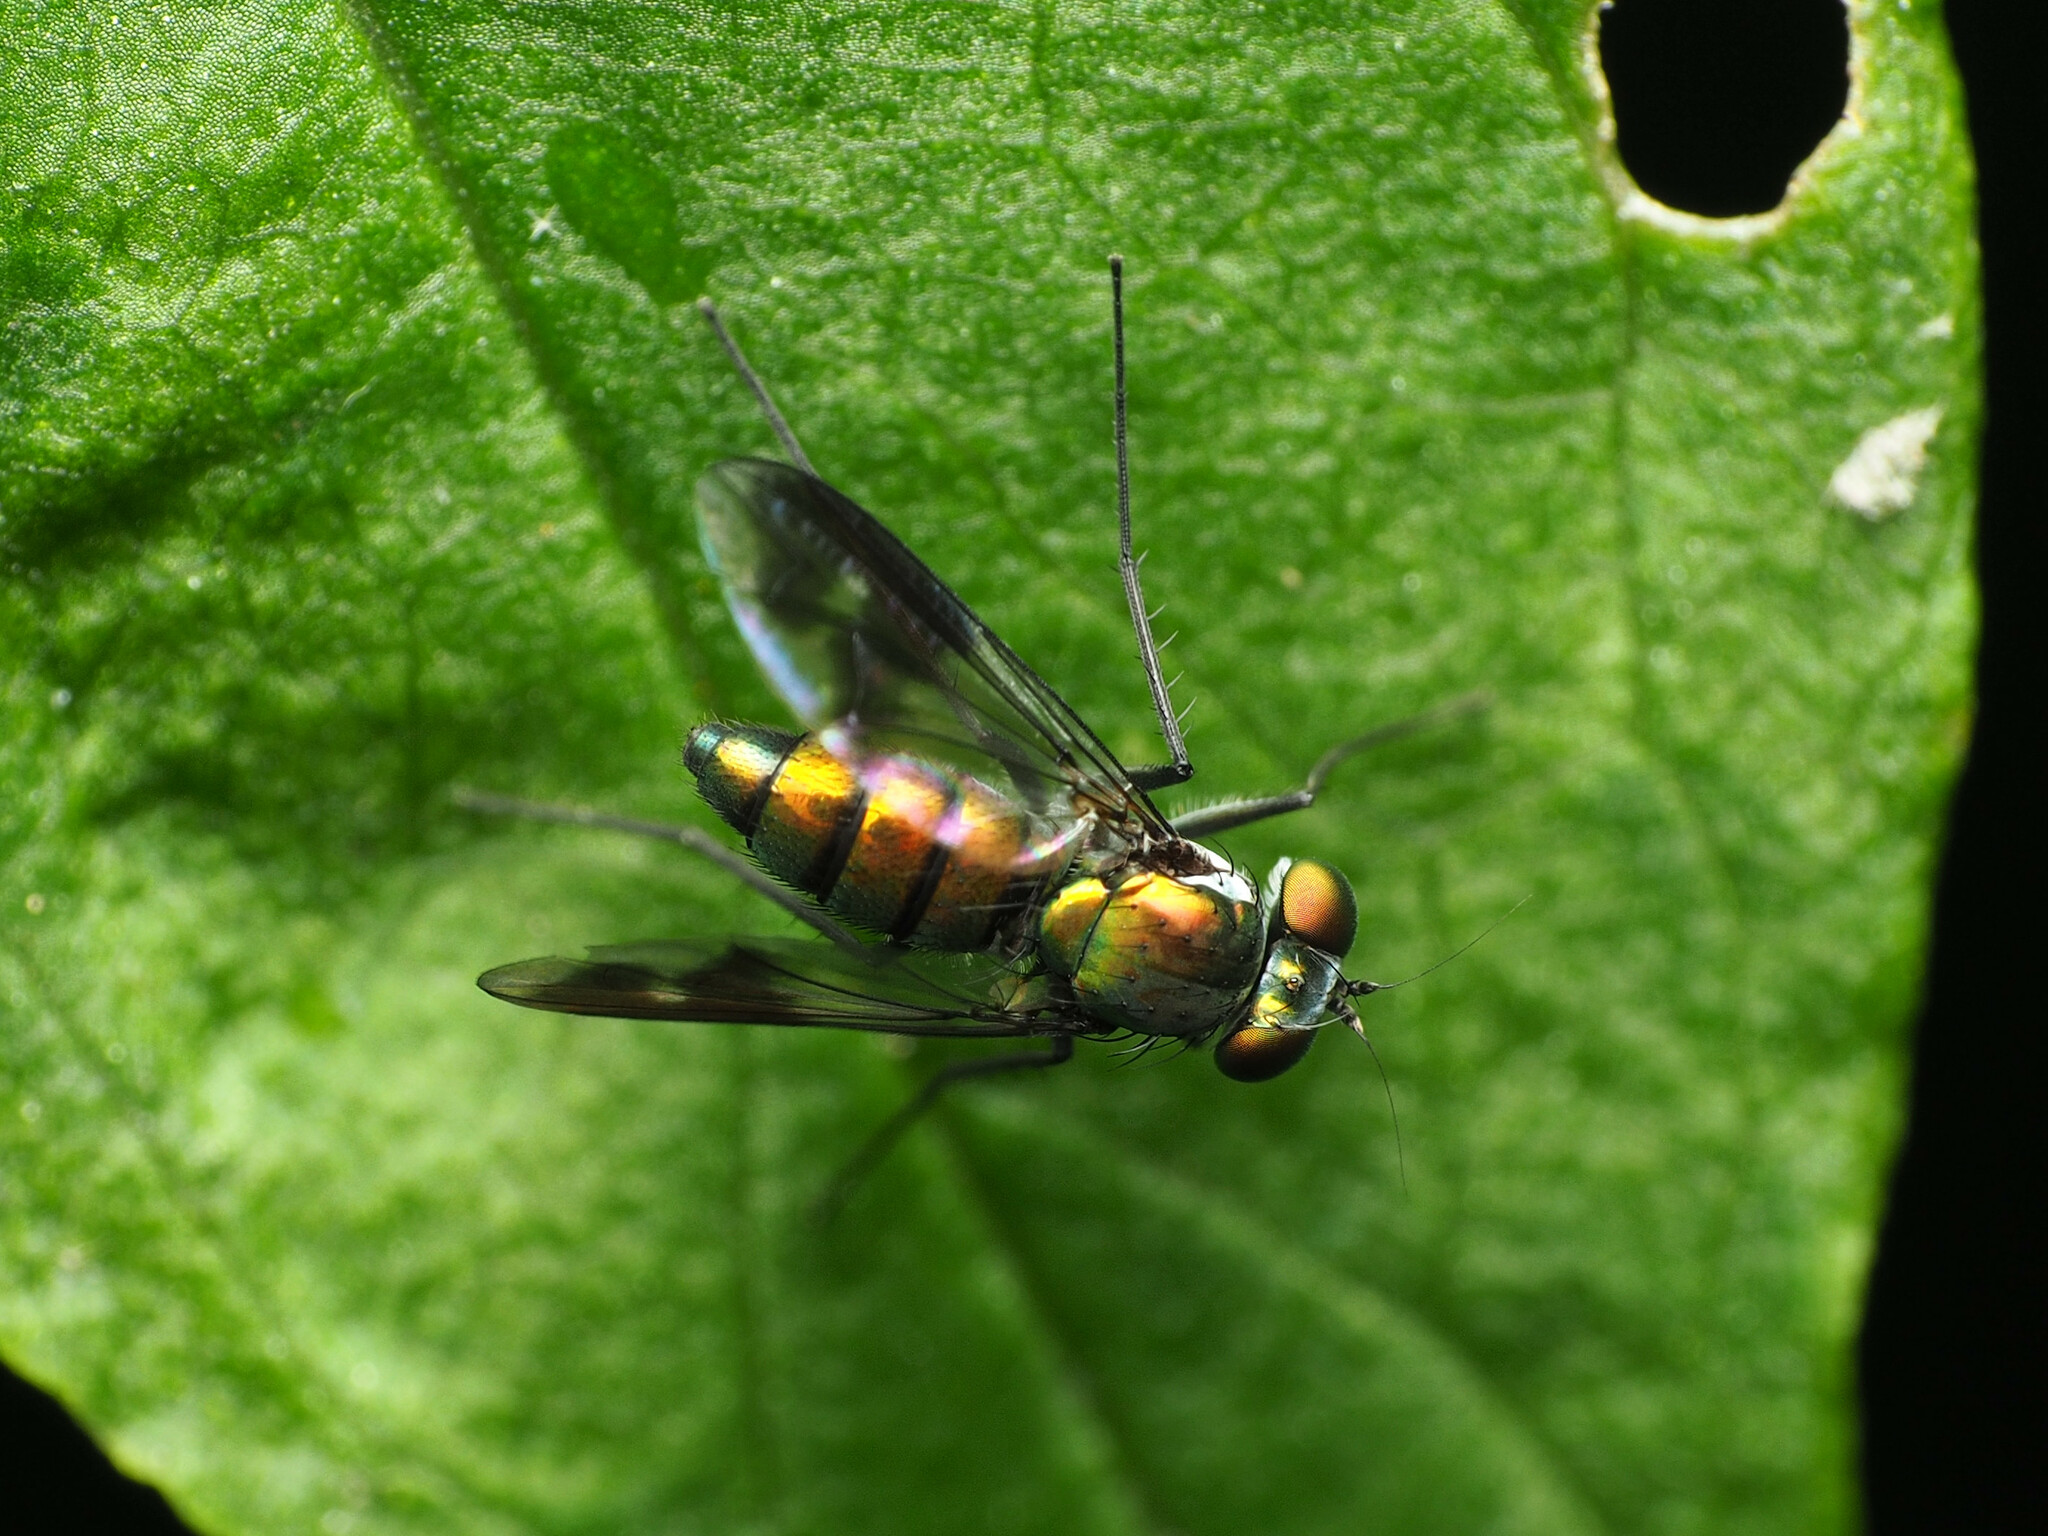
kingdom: Animalia
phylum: Arthropoda
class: Insecta
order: Diptera
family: Dolichopodidae
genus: Condylostylus
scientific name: Condylostylus patibulatus
